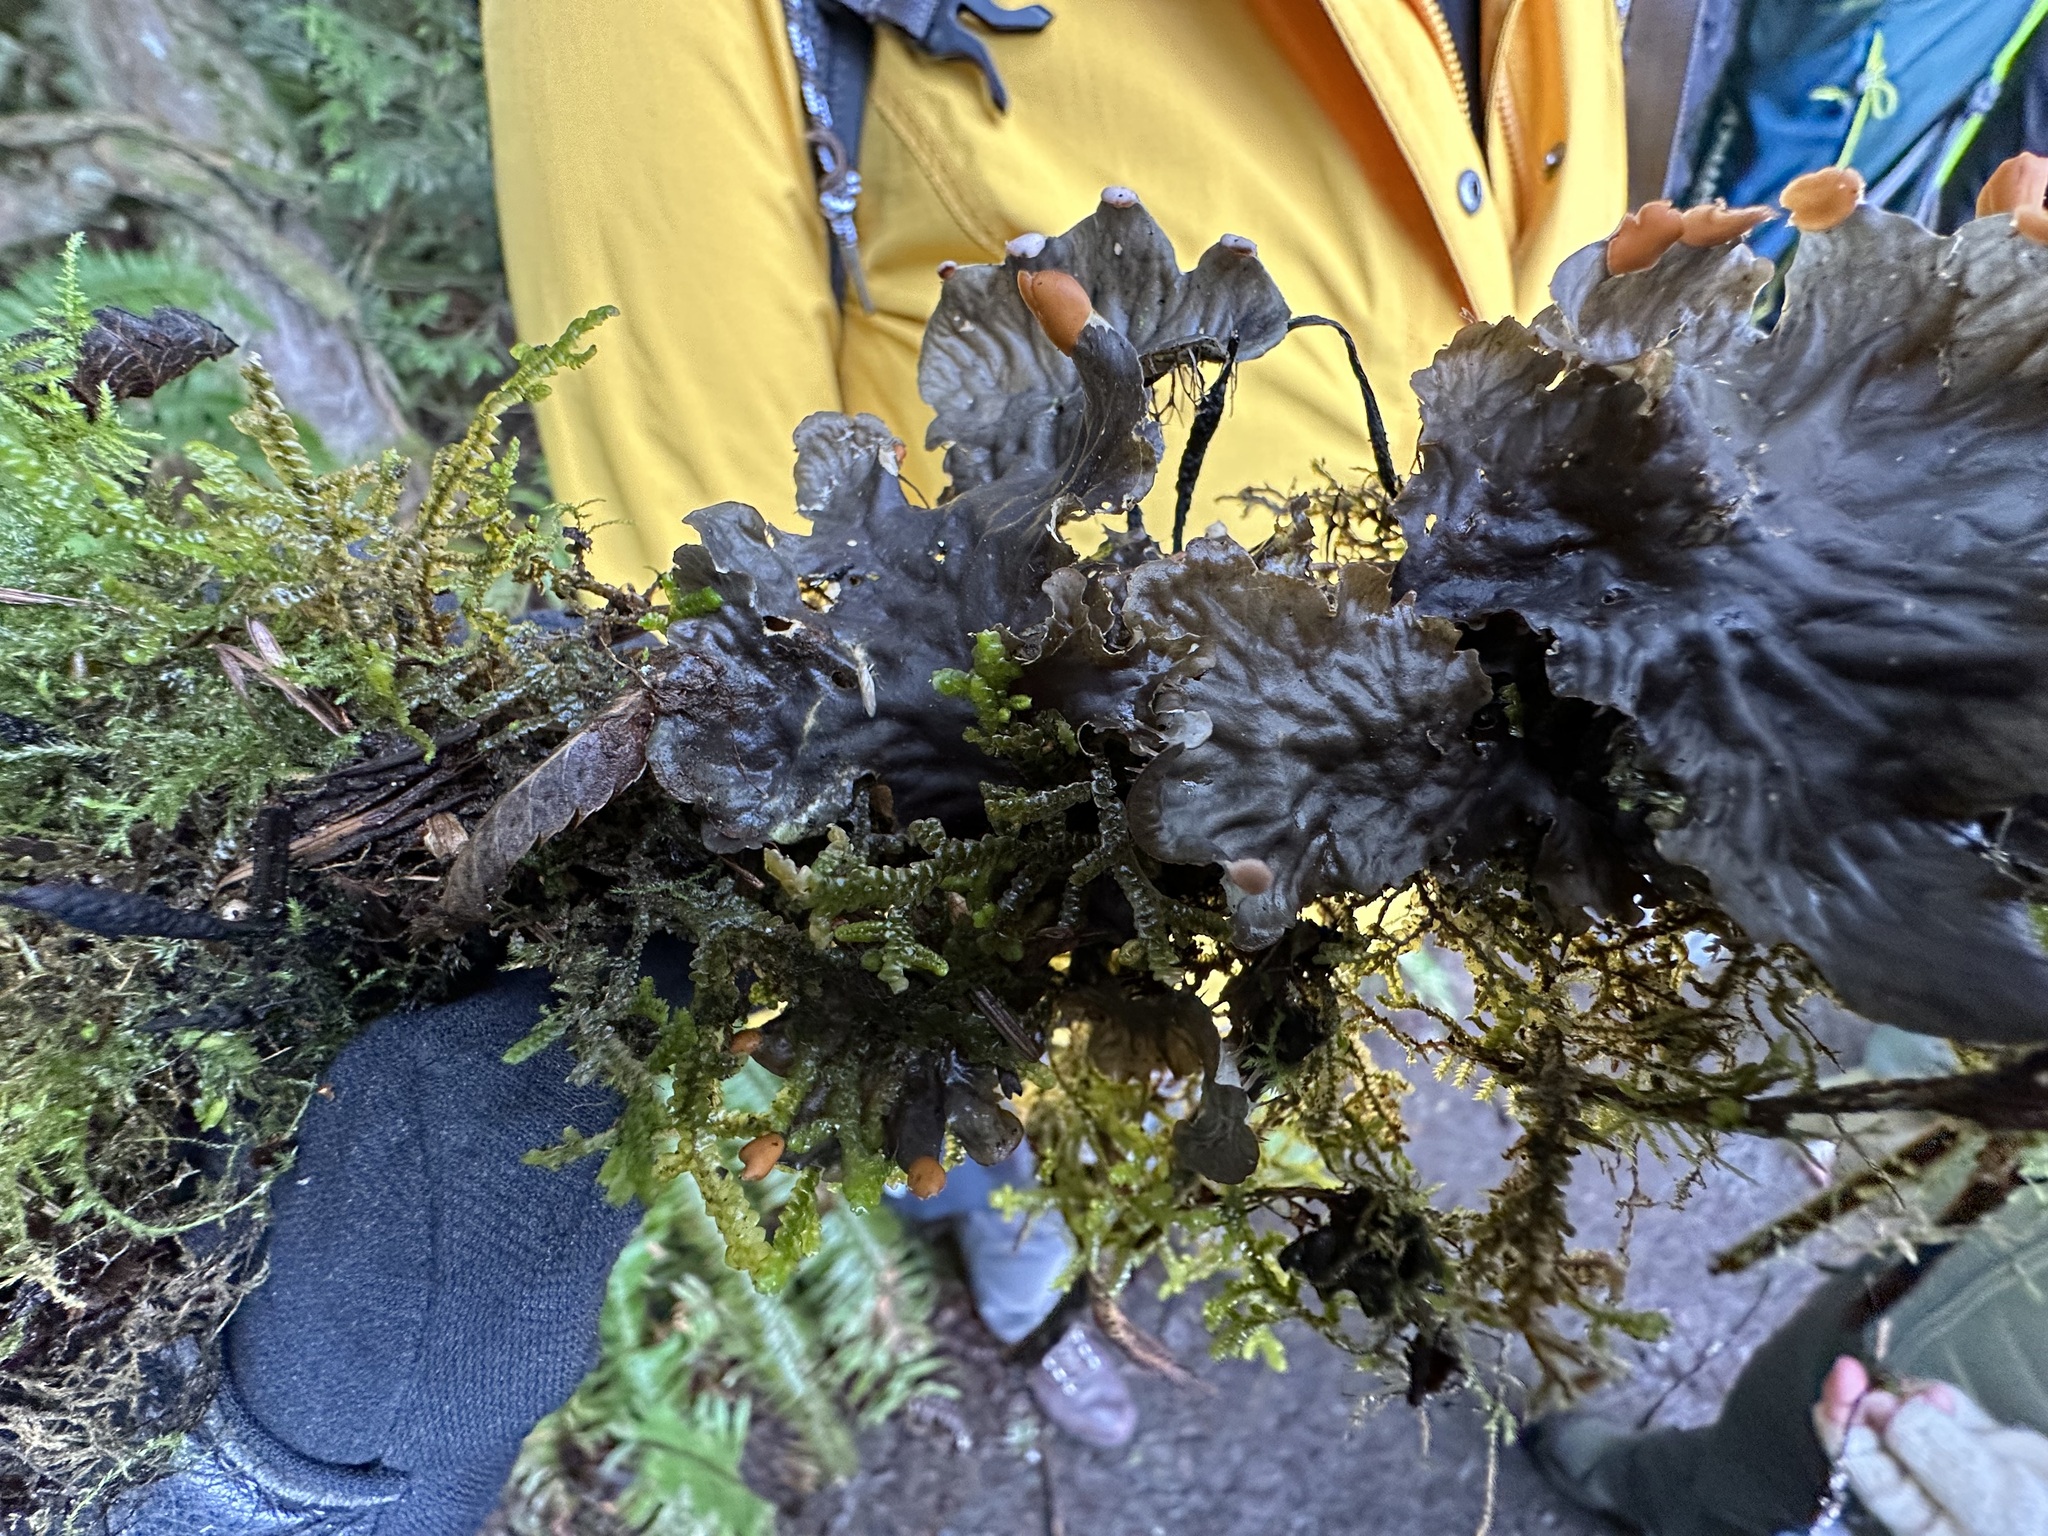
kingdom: Fungi
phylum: Ascomycota
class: Lecanoromycetes
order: Peltigerales
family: Peltigeraceae
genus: Peltigera
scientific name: Peltigera neopolydactyla
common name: Carpet pelt
